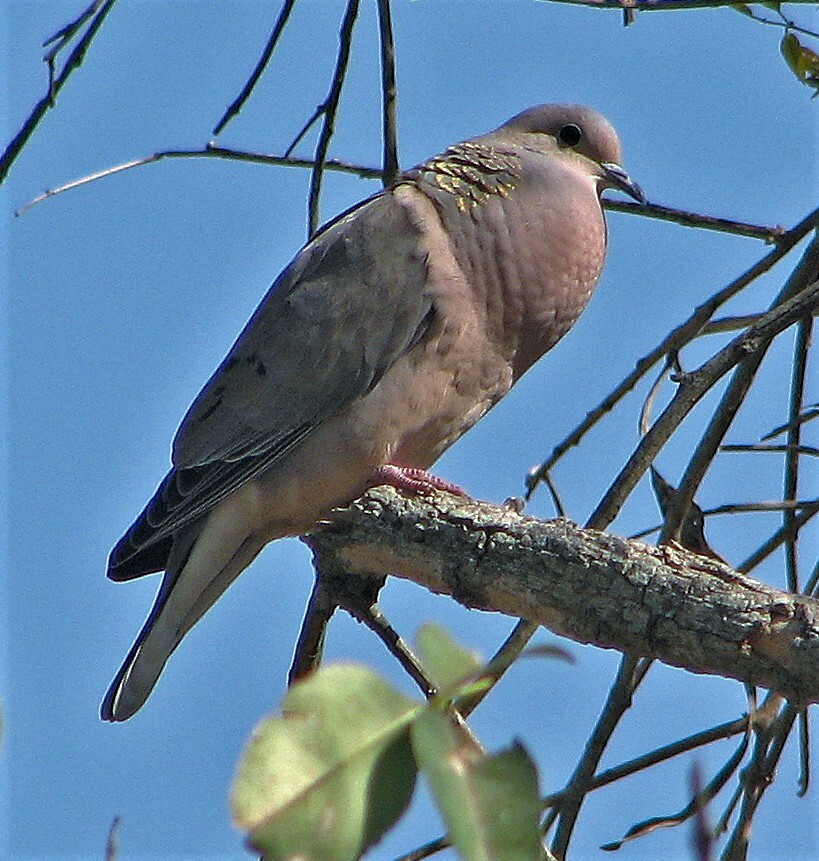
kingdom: Animalia
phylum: Chordata
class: Aves
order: Columbiformes
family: Columbidae
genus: Zenaida
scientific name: Zenaida auriculata
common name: Eared dove
